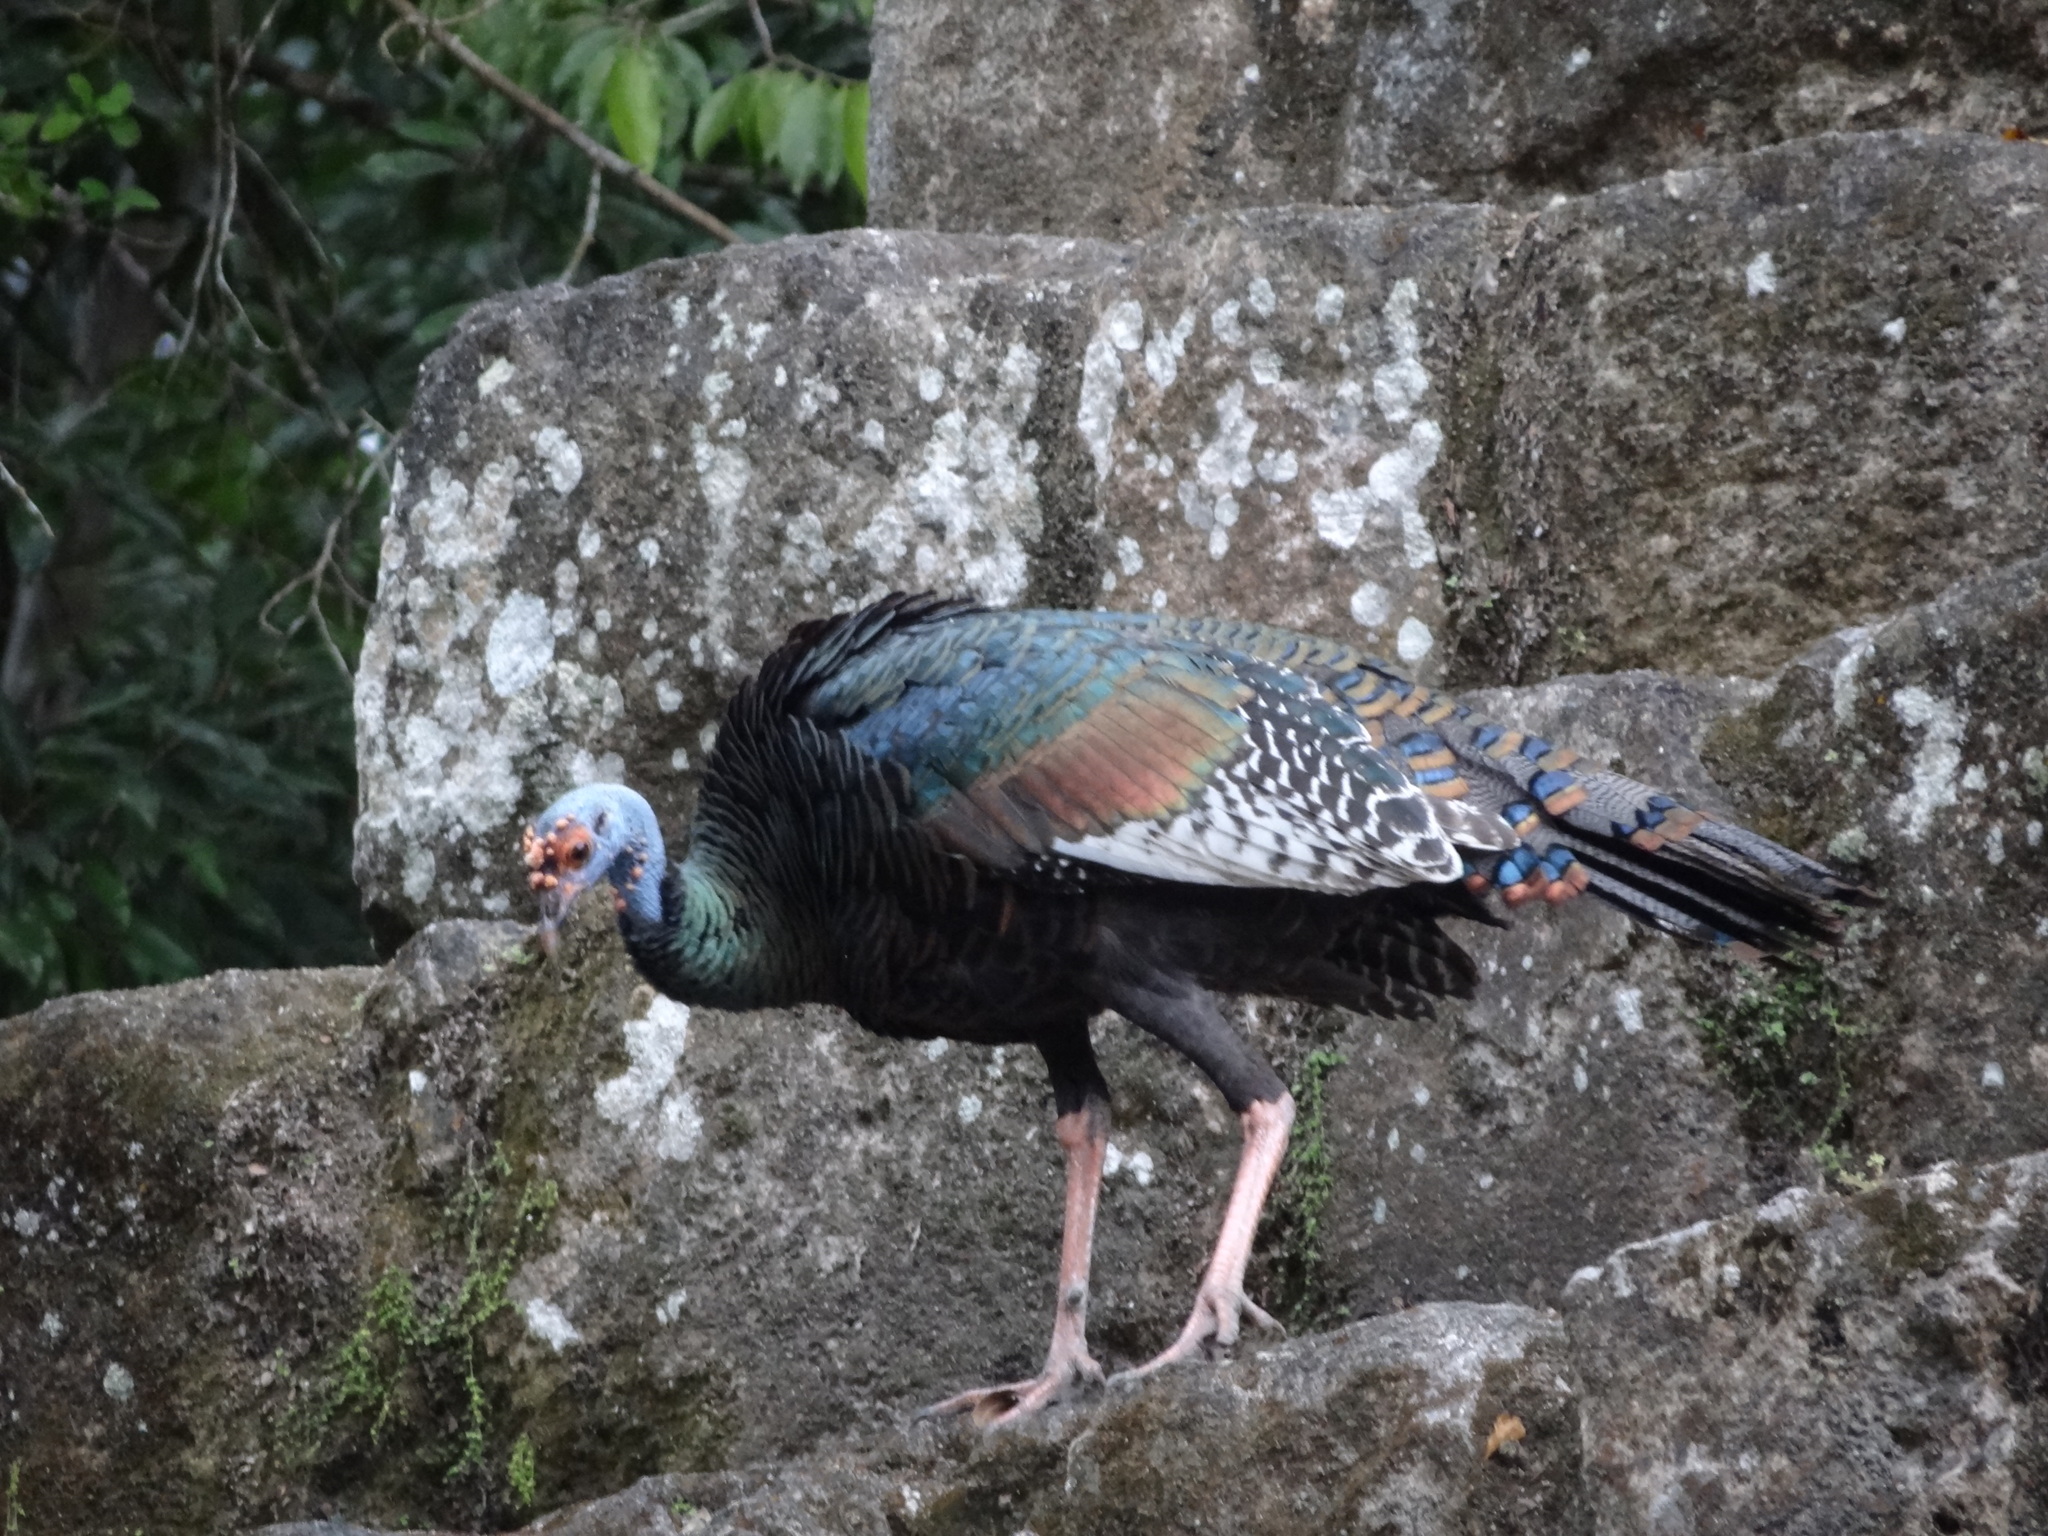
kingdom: Animalia
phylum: Chordata
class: Aves
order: Galliformes
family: Phasianidae
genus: Meleagris
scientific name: Meleagris ocellata
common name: Ocellated turkey
